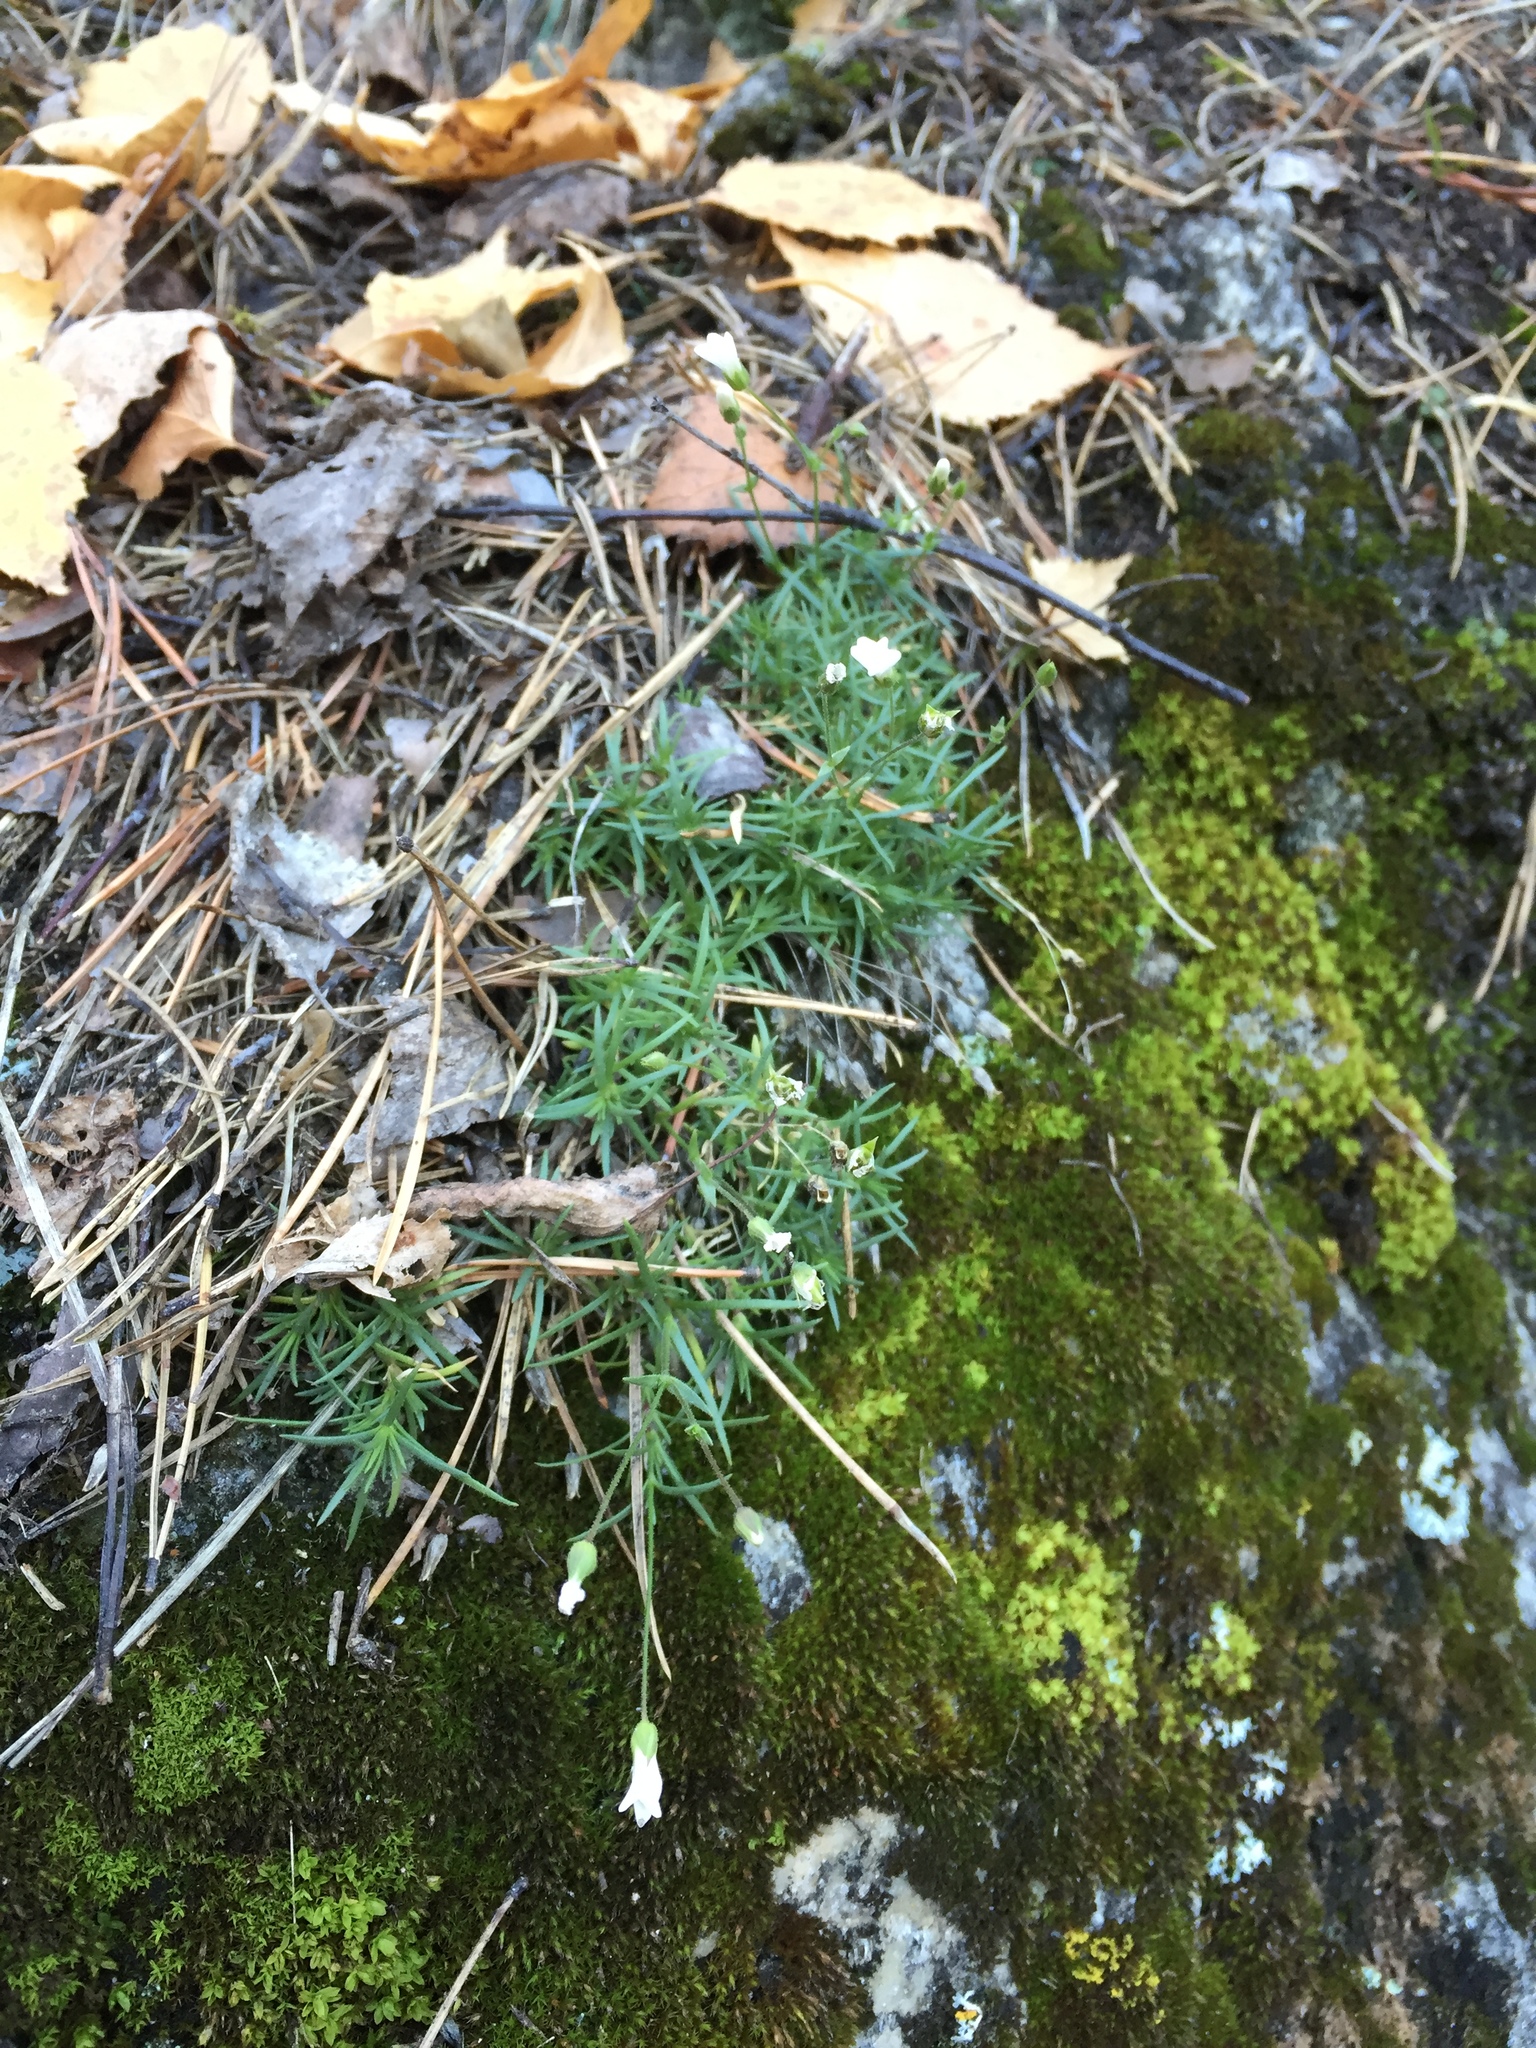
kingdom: Plantae
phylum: Tracheophyta
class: Magnoliopsida
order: Caryophyllales
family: Caryophyllaceae
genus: Sabulina
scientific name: Sabulina helmii
